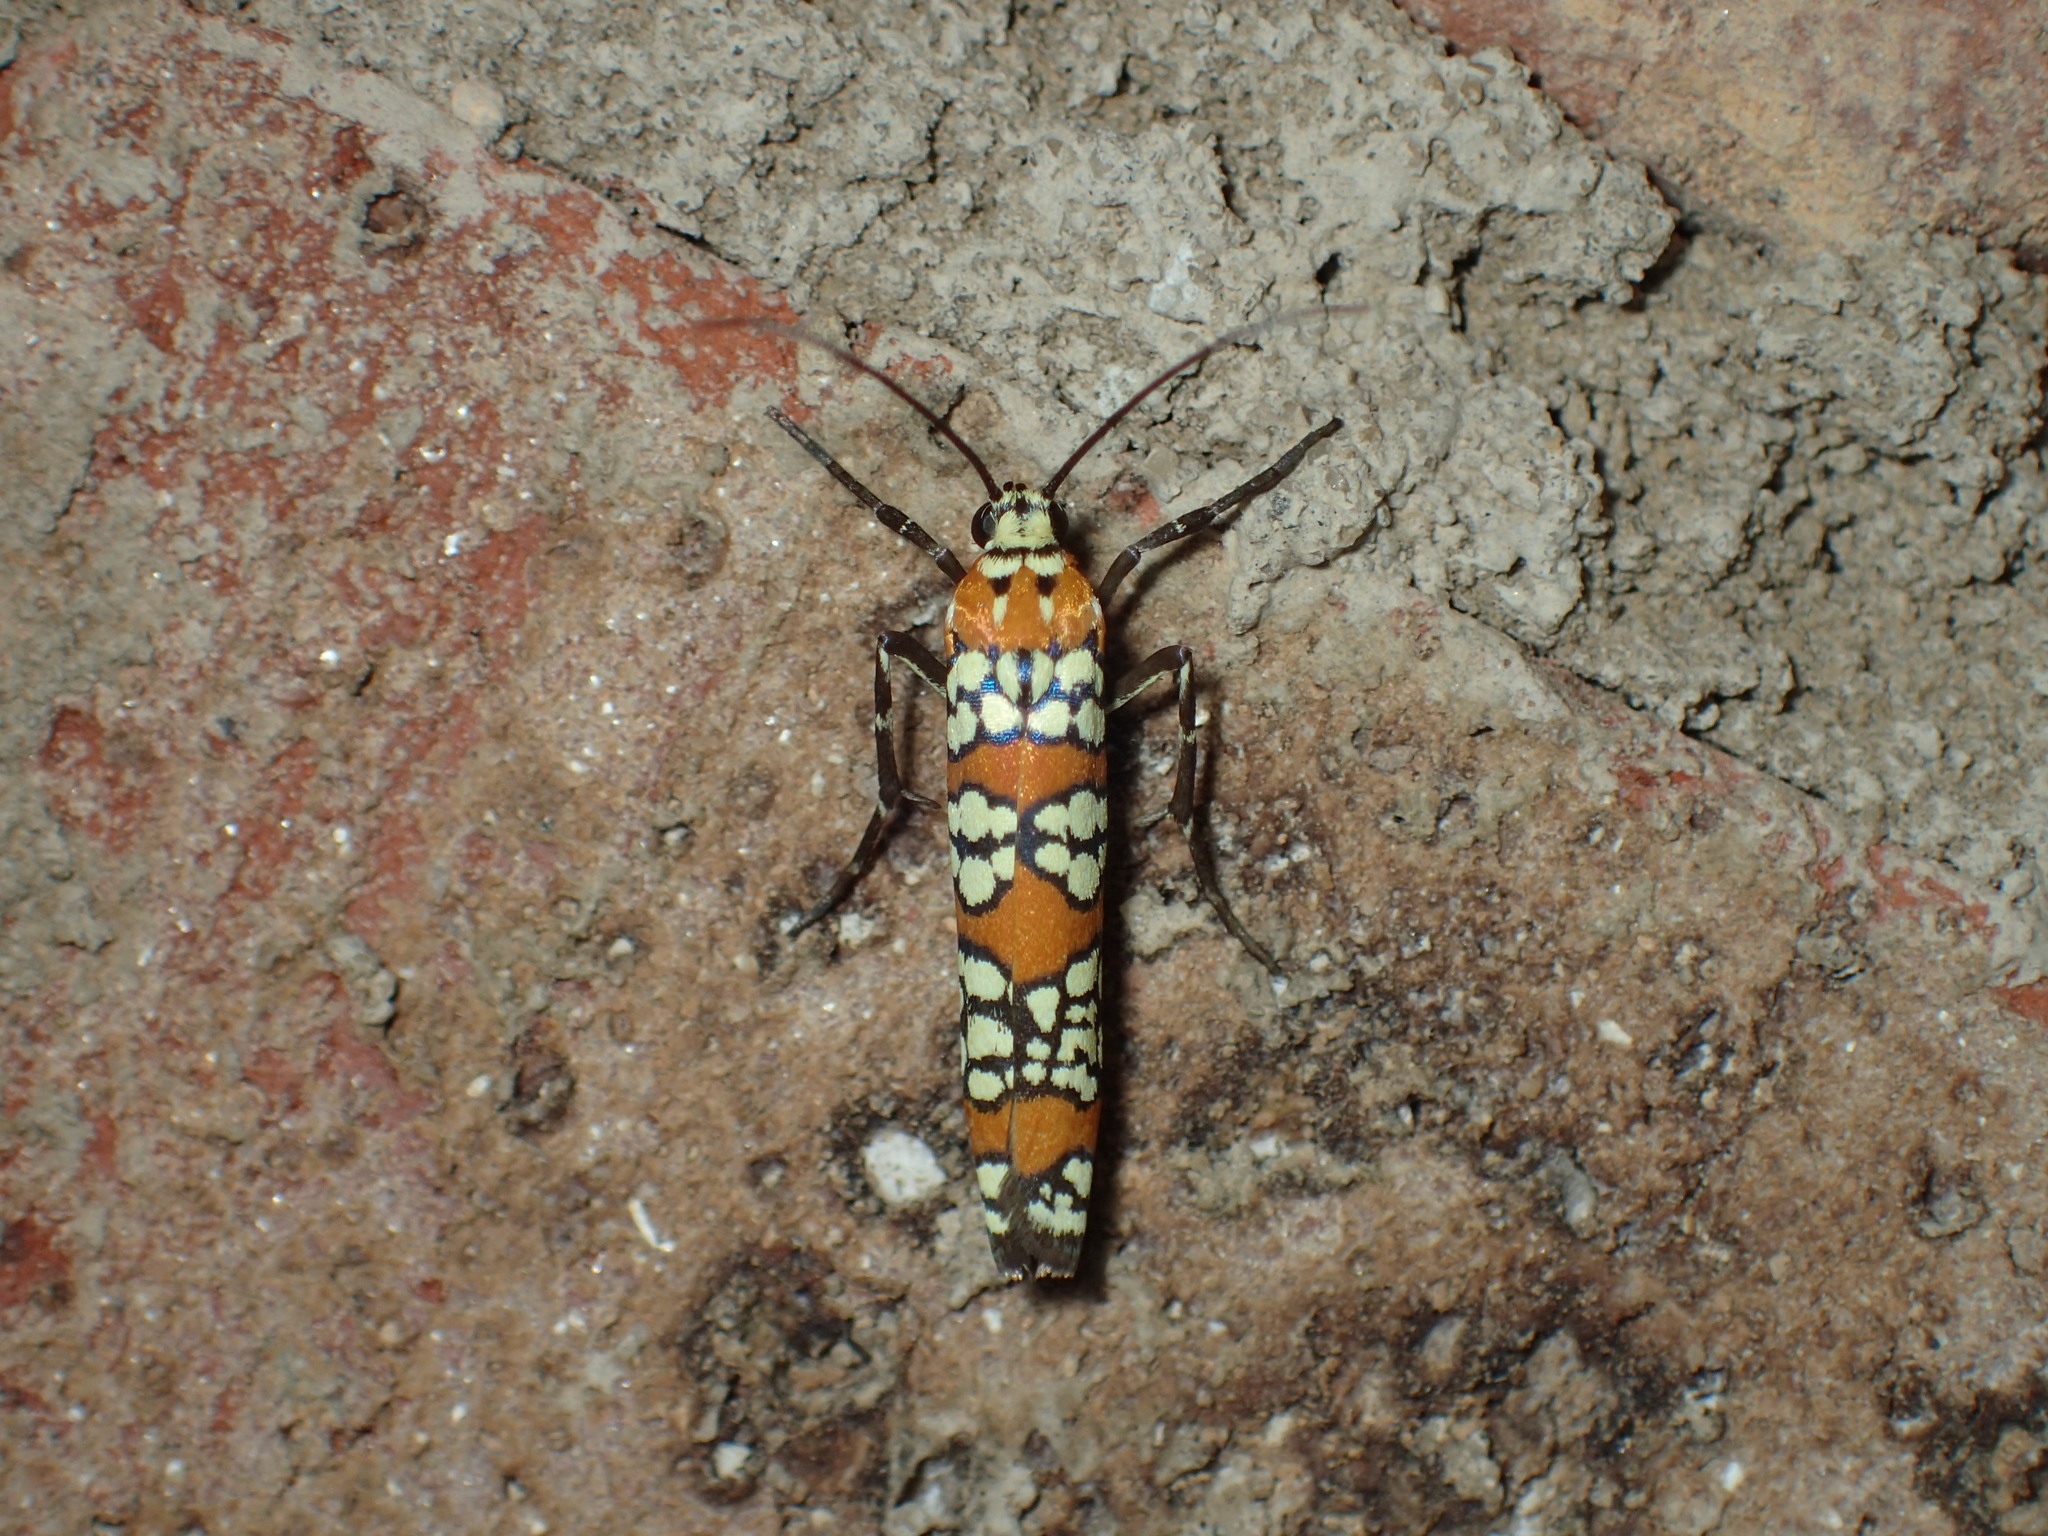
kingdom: Animalia
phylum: Arthropoda
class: Insecta
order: Lepidoptera
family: Attevidae
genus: Atteva
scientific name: Atteva punctella
